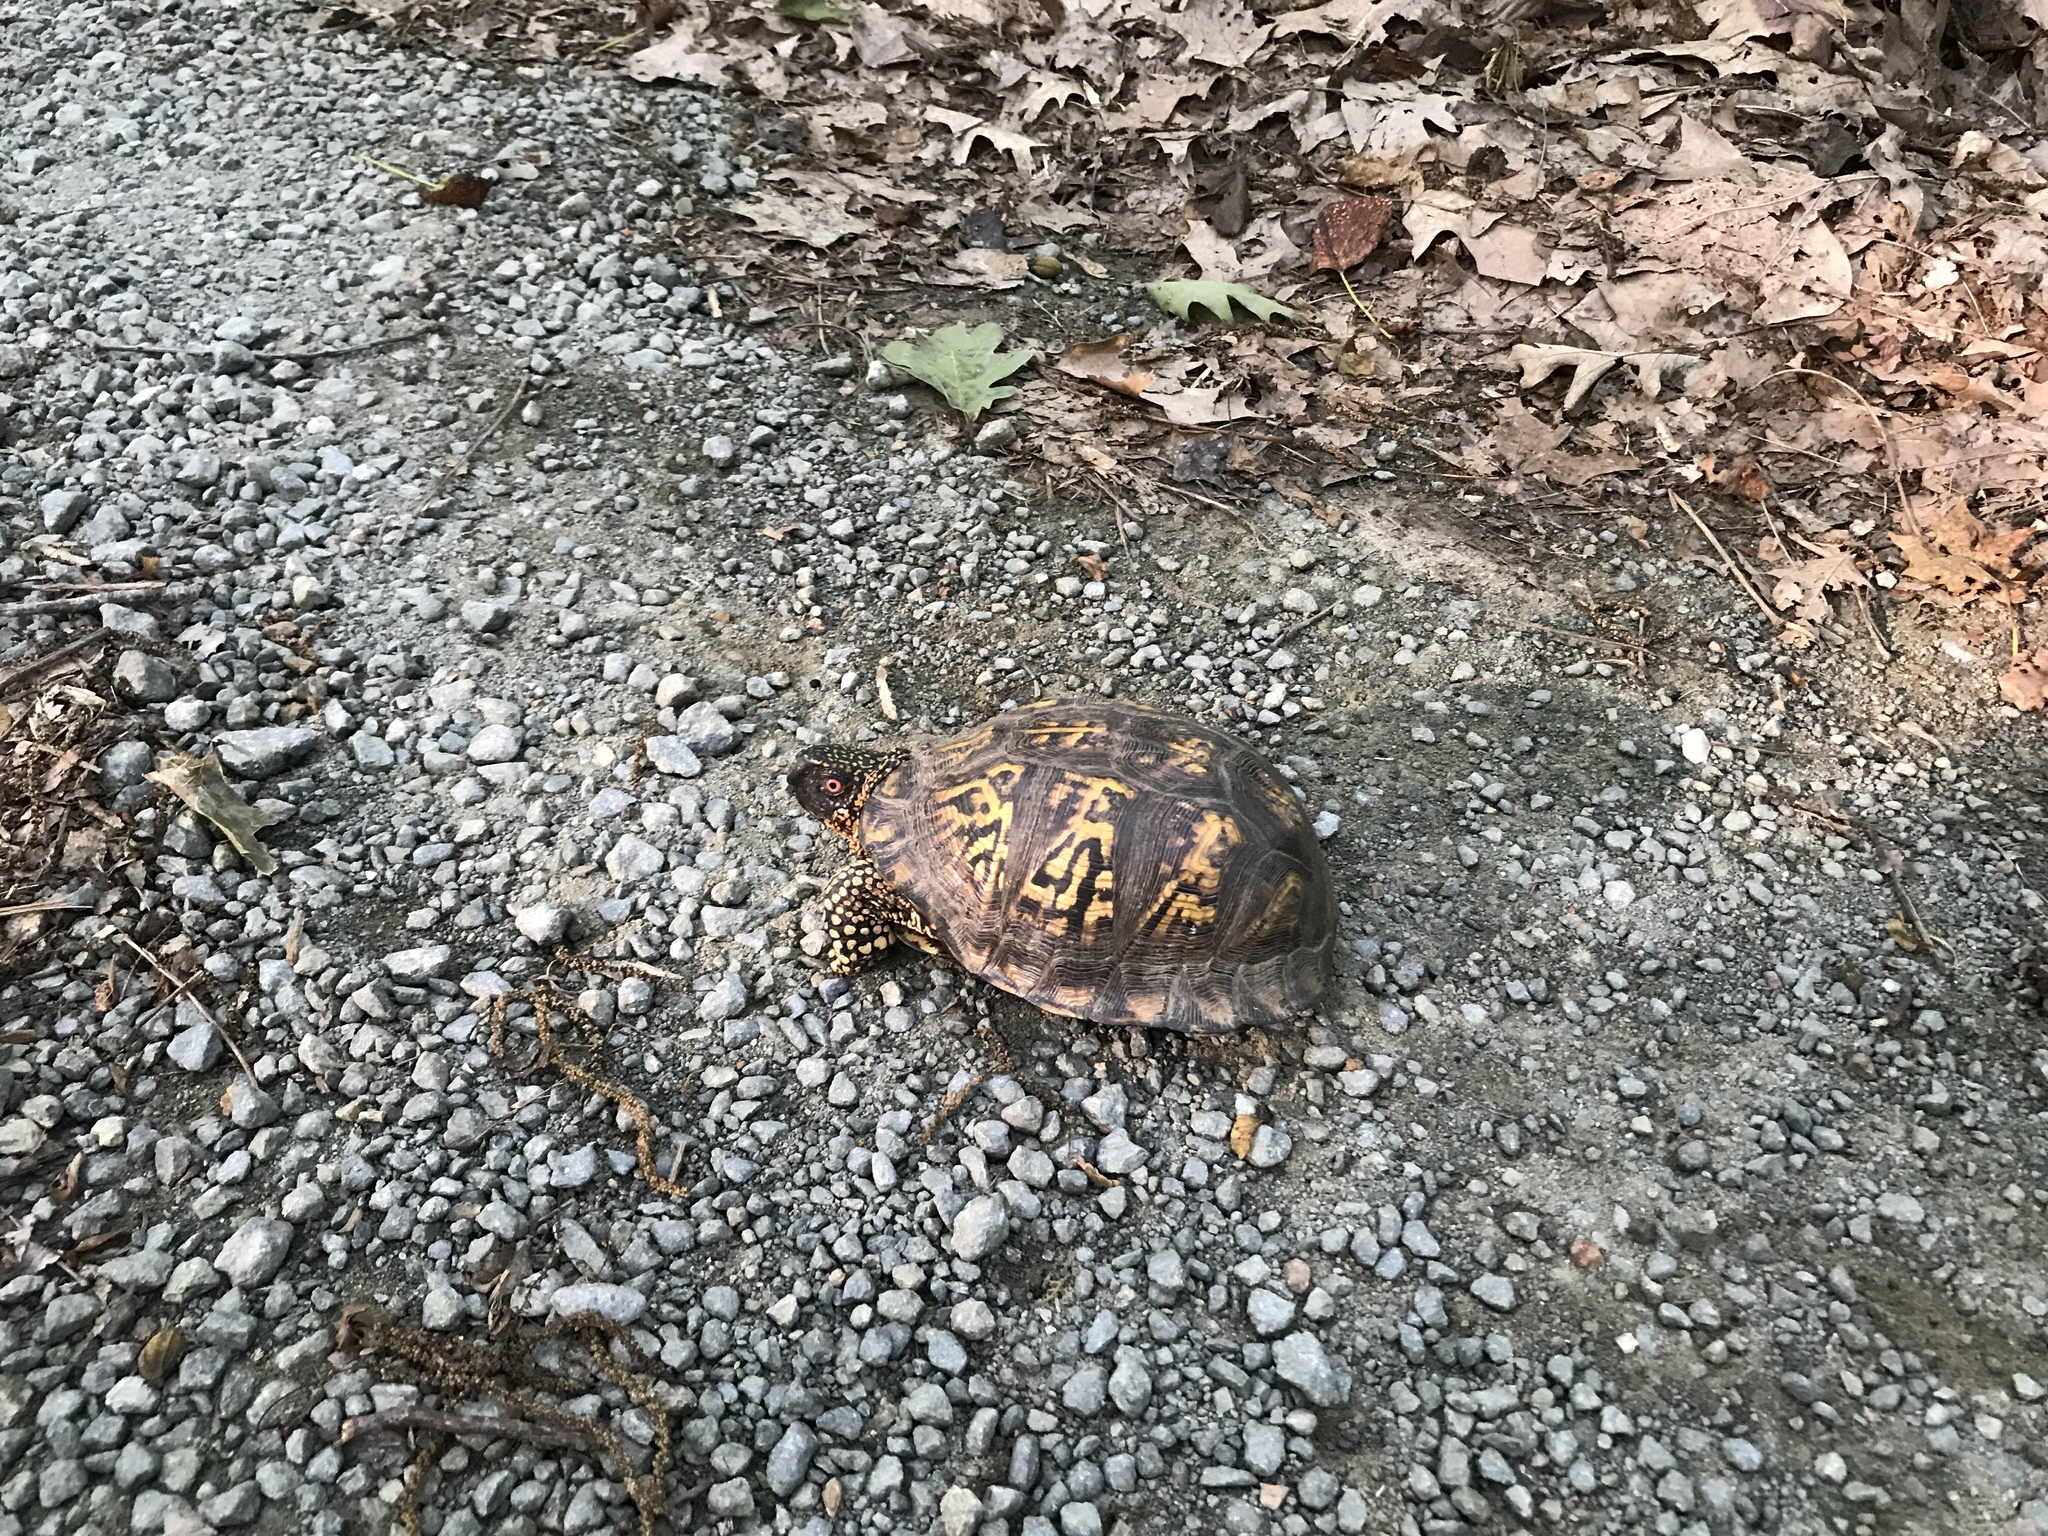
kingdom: Animalia
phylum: Chordata
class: Testudines
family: Emydidae
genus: Terrapene
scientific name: Terrapene carolina
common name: Common box turtle
